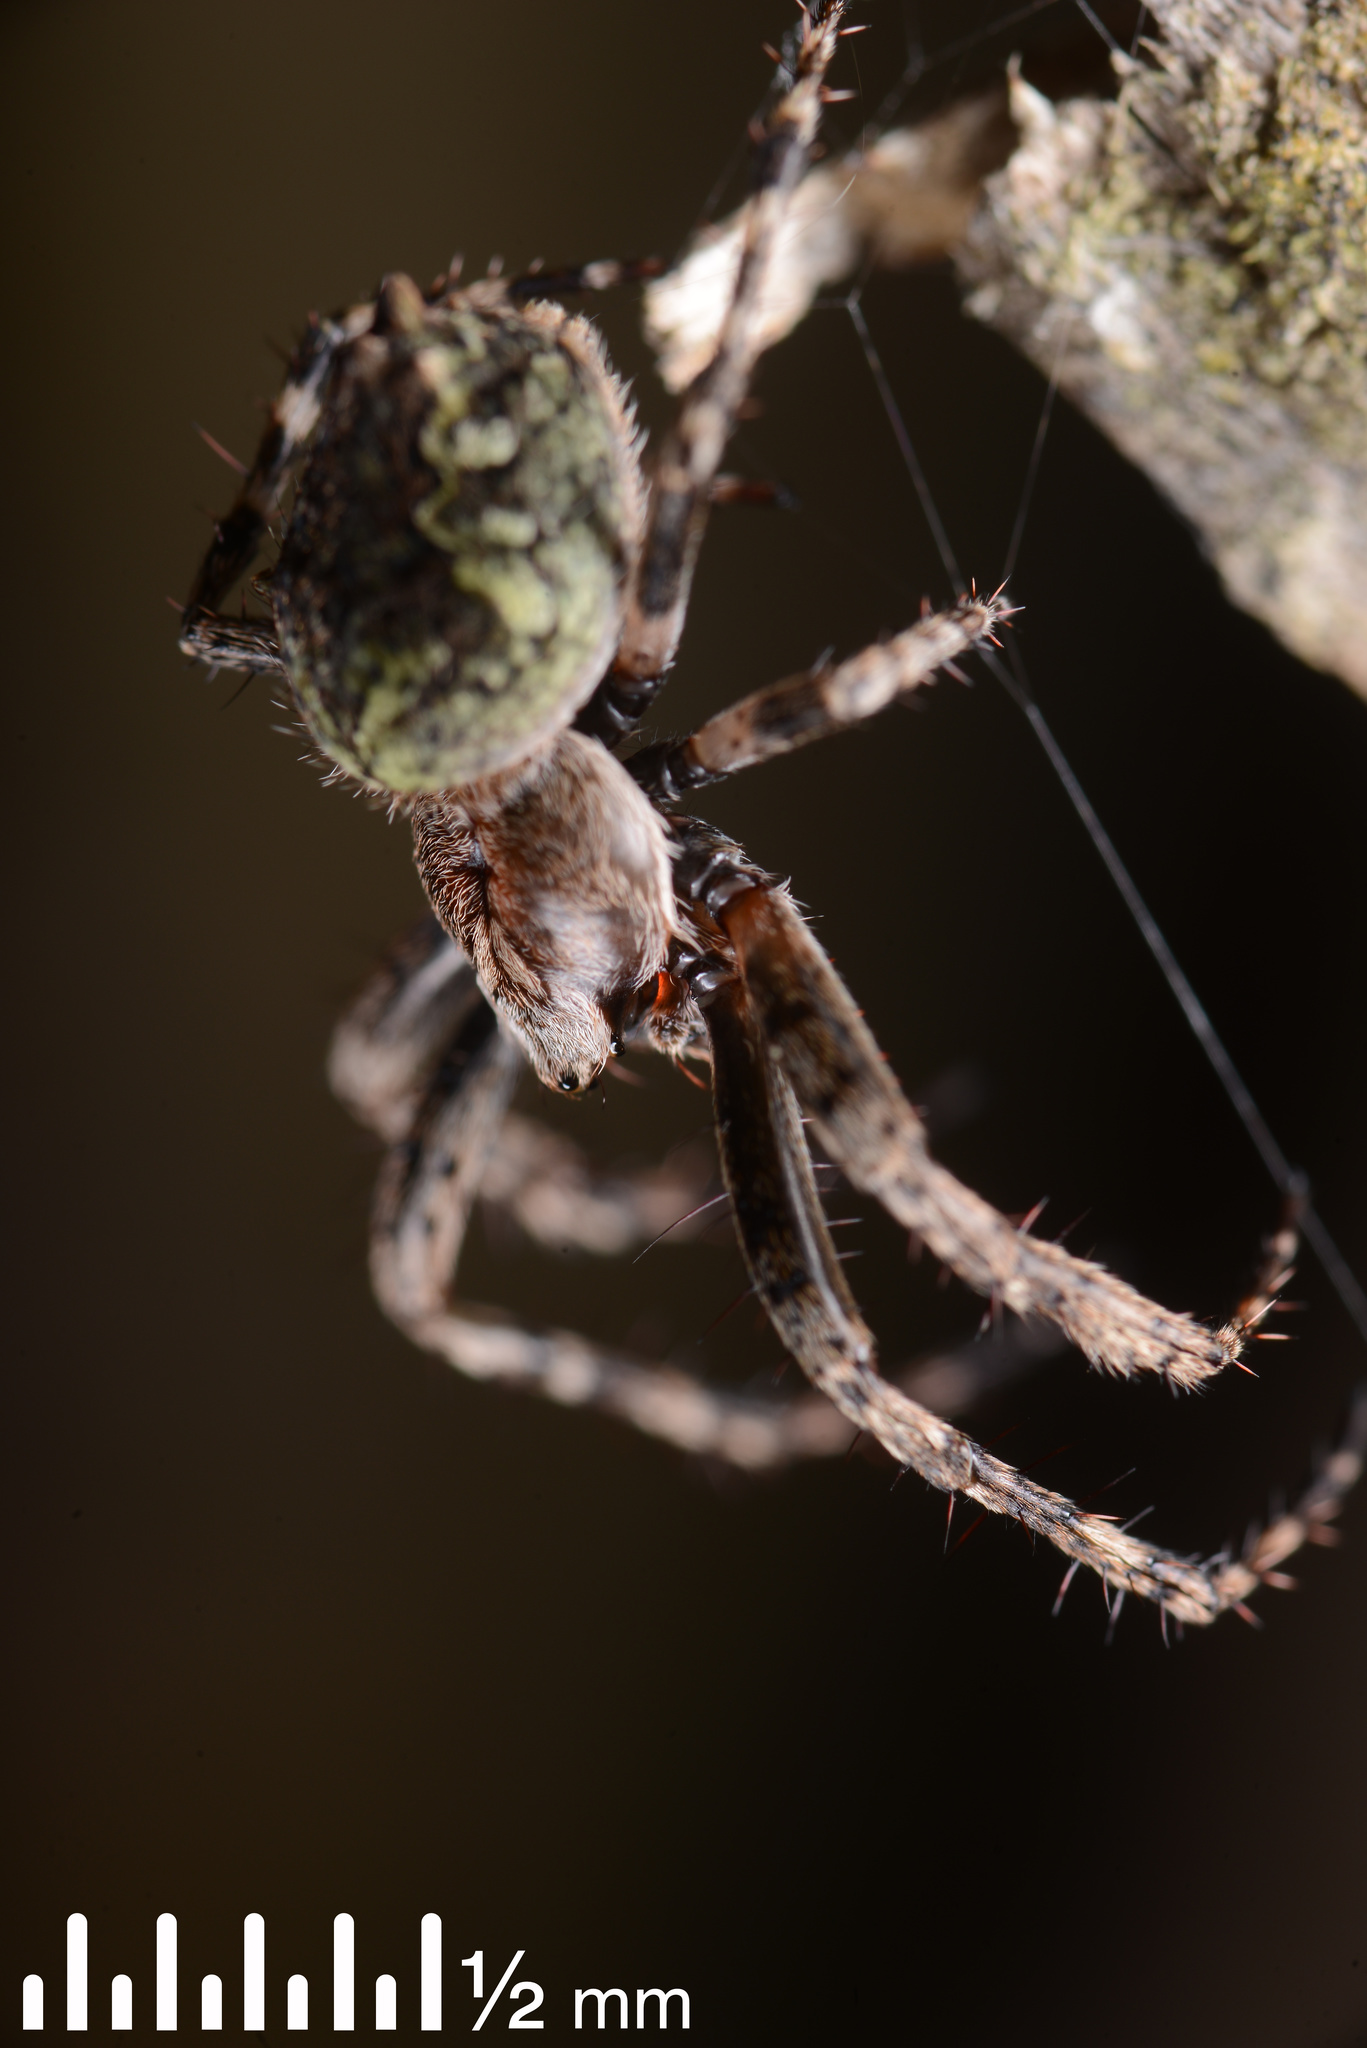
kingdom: Animalia
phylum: Arthropoda
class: Arachnida
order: Araneae
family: Araneidae
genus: Eriophora
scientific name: Eriophora pustulosa
